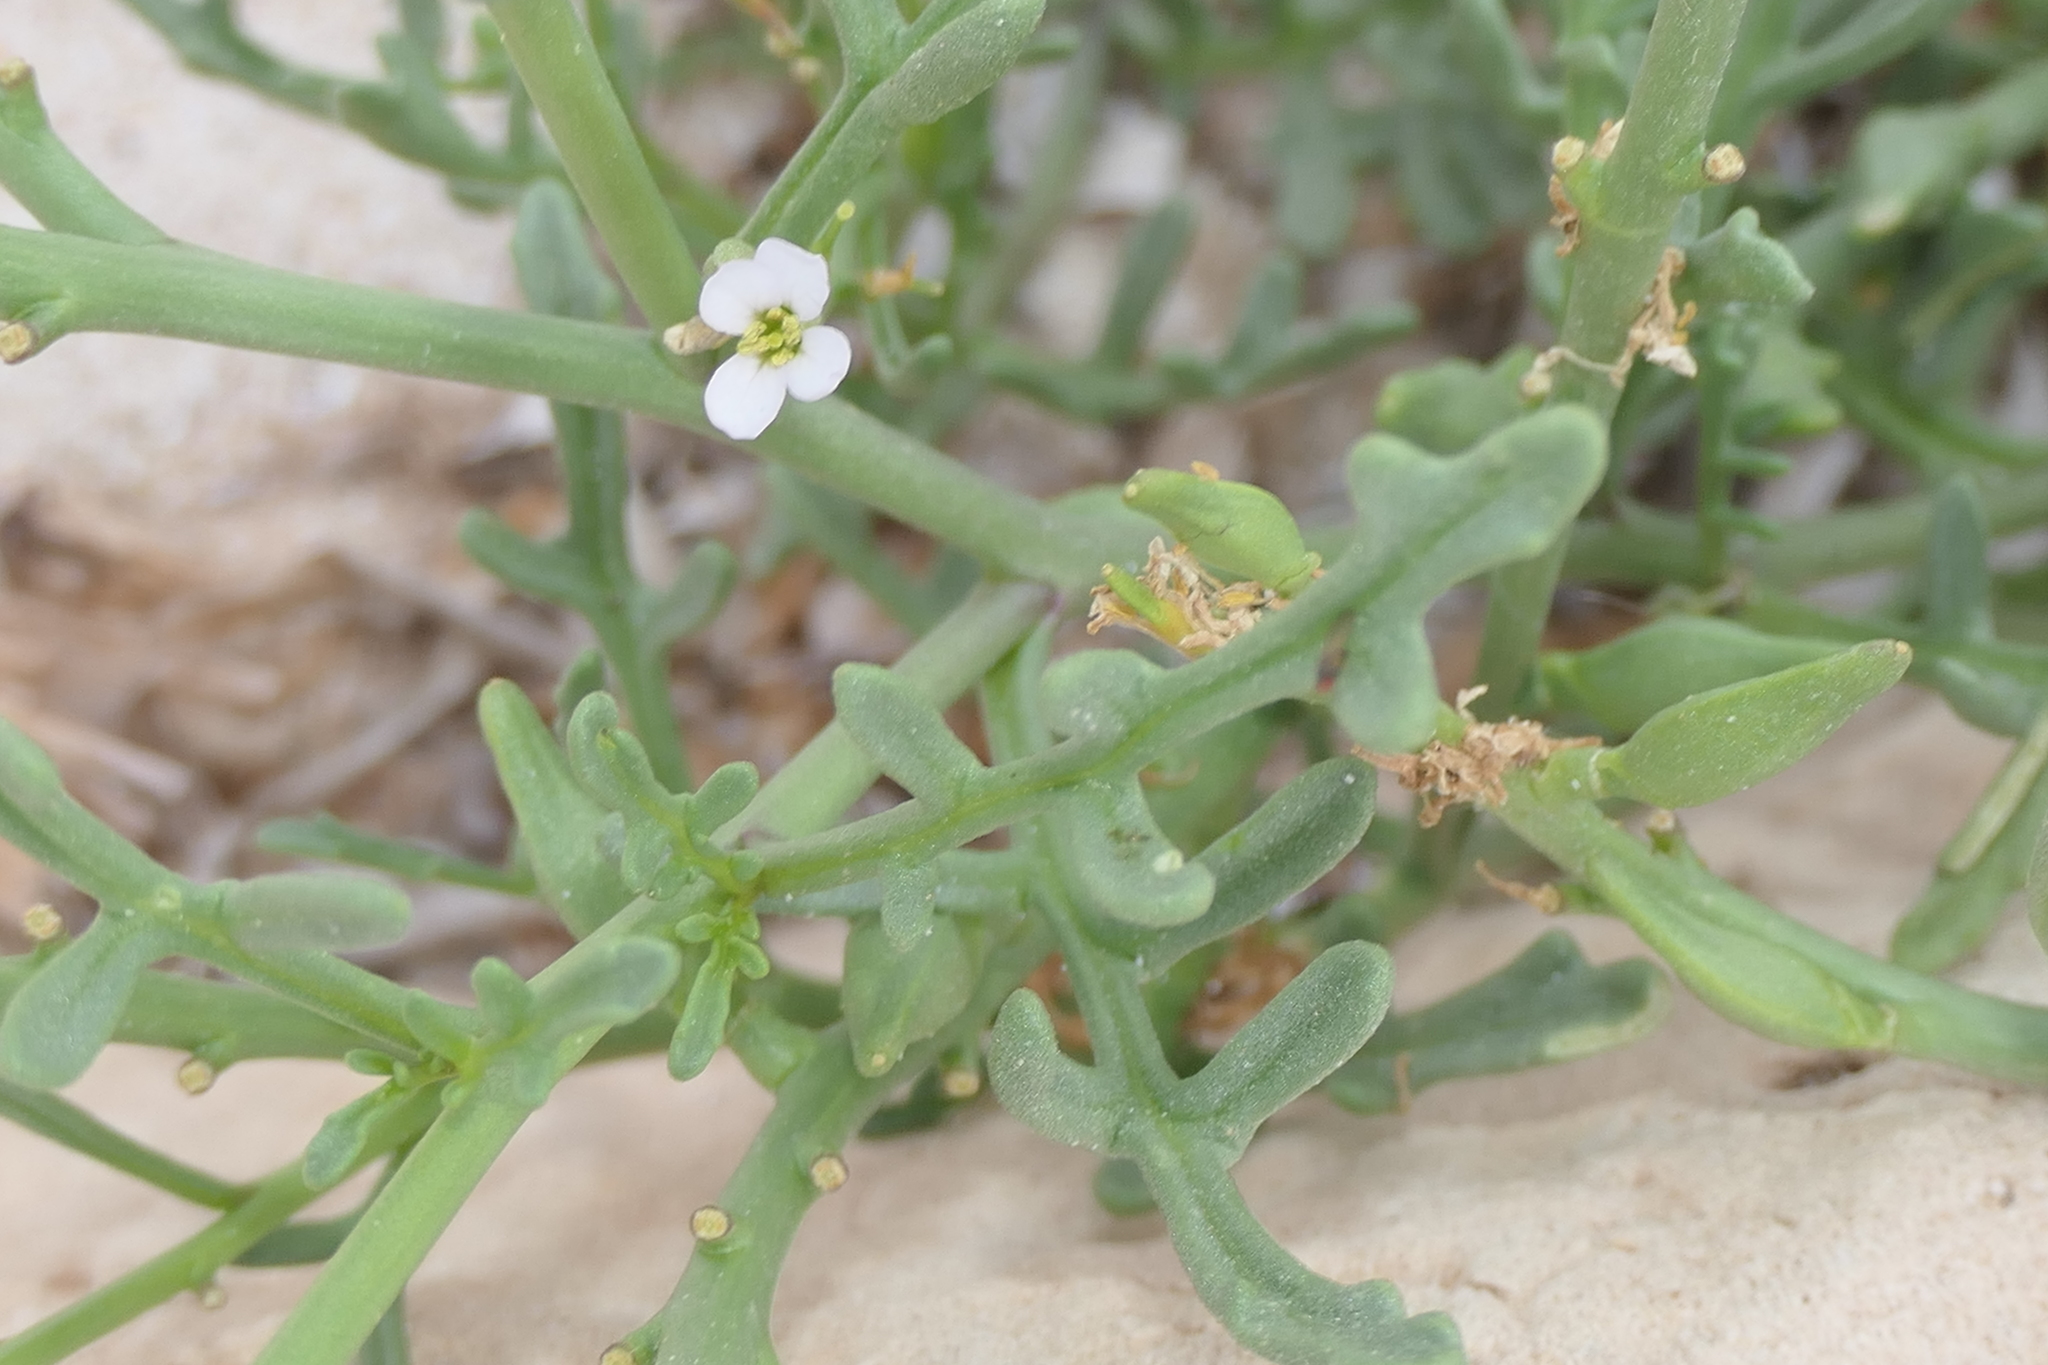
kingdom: Plantae
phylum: Tracheophyta
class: Magnoliopsida
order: Brassicales
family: Brassicaceae
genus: Cakile
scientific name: Cakile maritima
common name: Sea rocket
